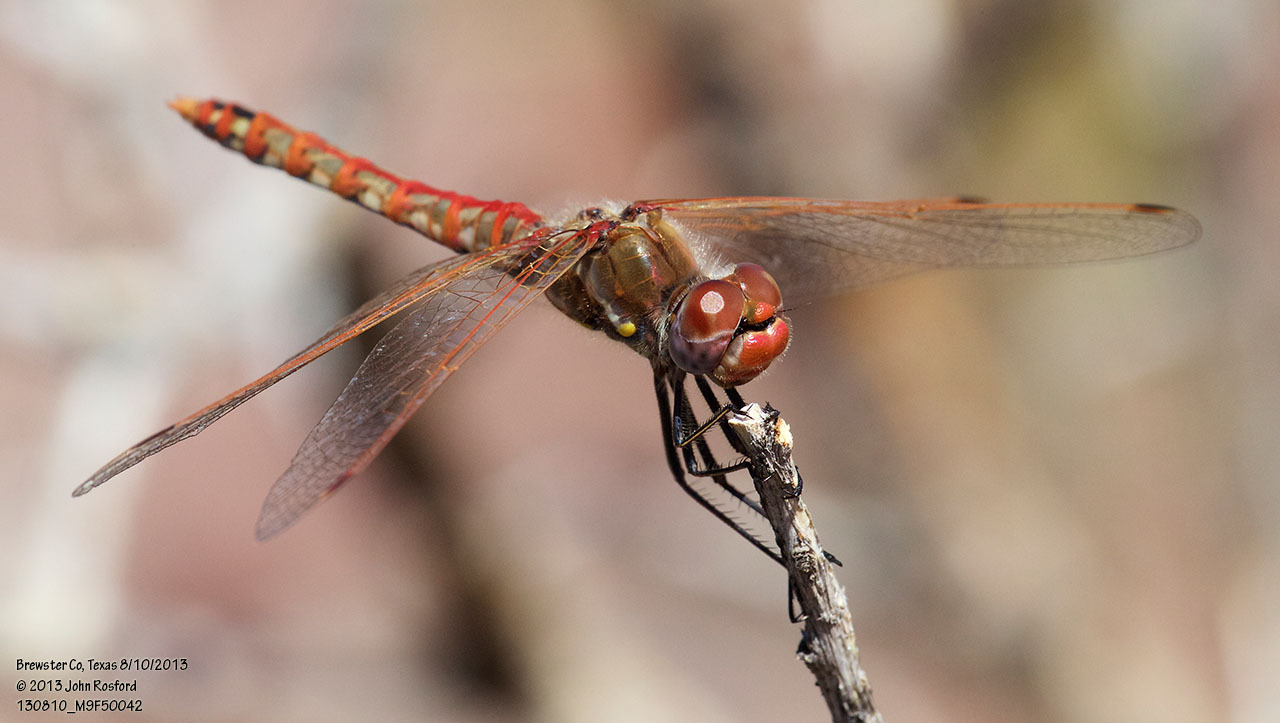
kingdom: Animalia
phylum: Arthropoda
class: Insecta
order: Odonata
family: Libellulidae
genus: Sympetrum
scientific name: Sympetrum corruptum
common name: Variegated meadowhawk
